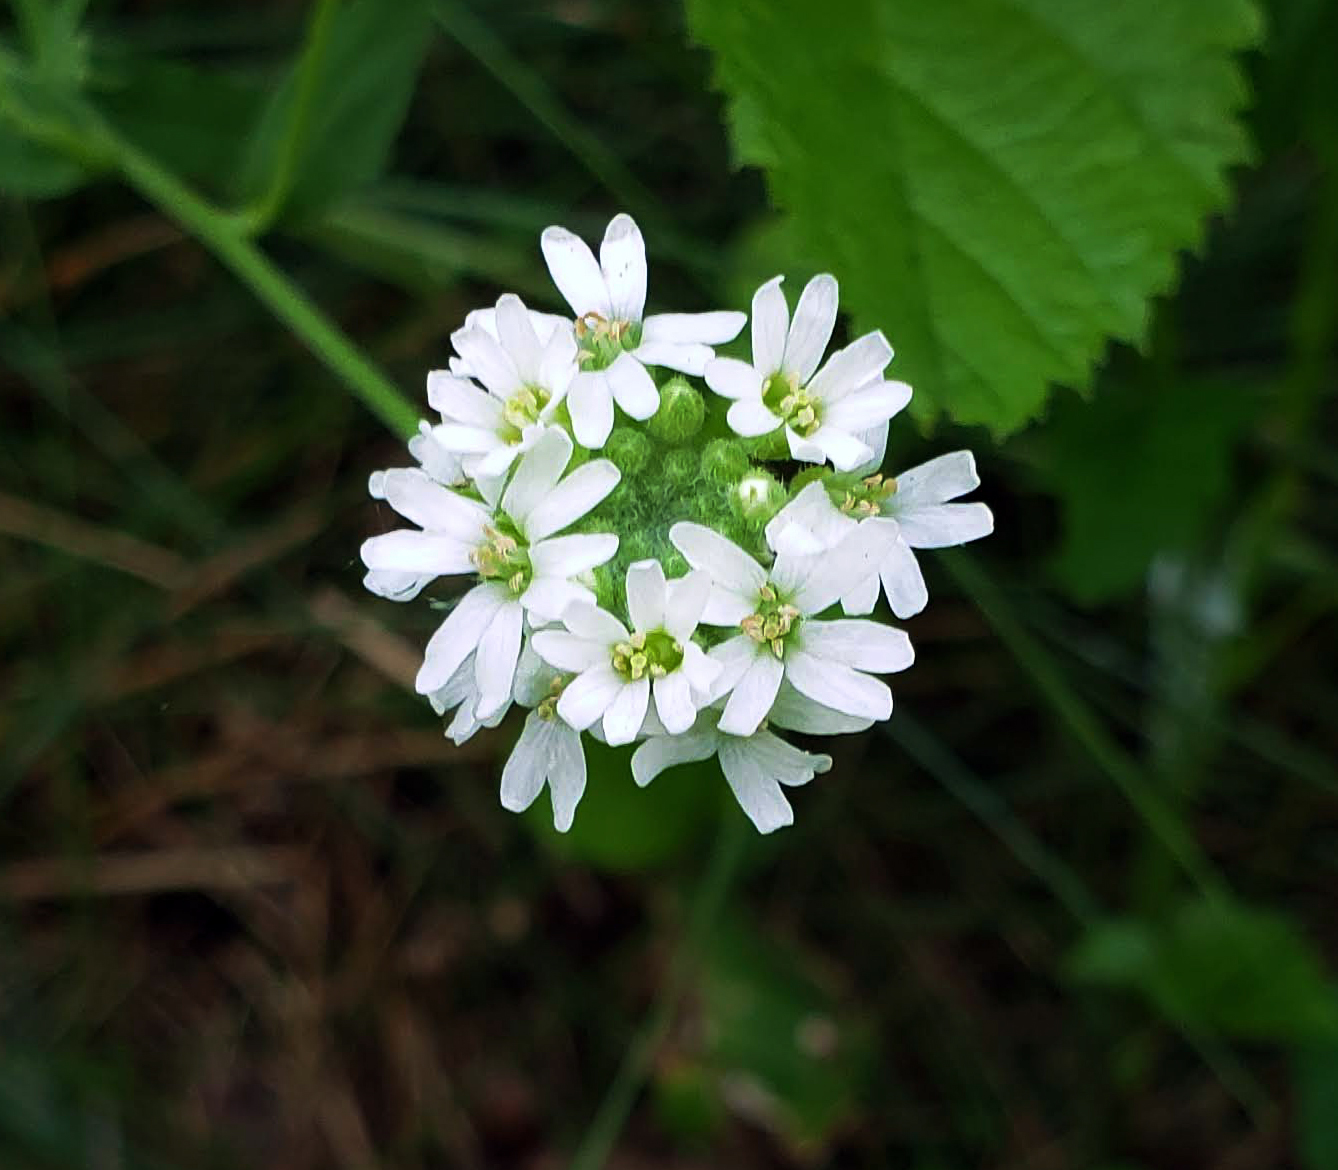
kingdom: Plantae
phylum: Tracheophyta
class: Magnoliopsida
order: Brassicales
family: Brassicaceae
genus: Berteroa
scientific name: Berteroa incana
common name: Hoary alison
